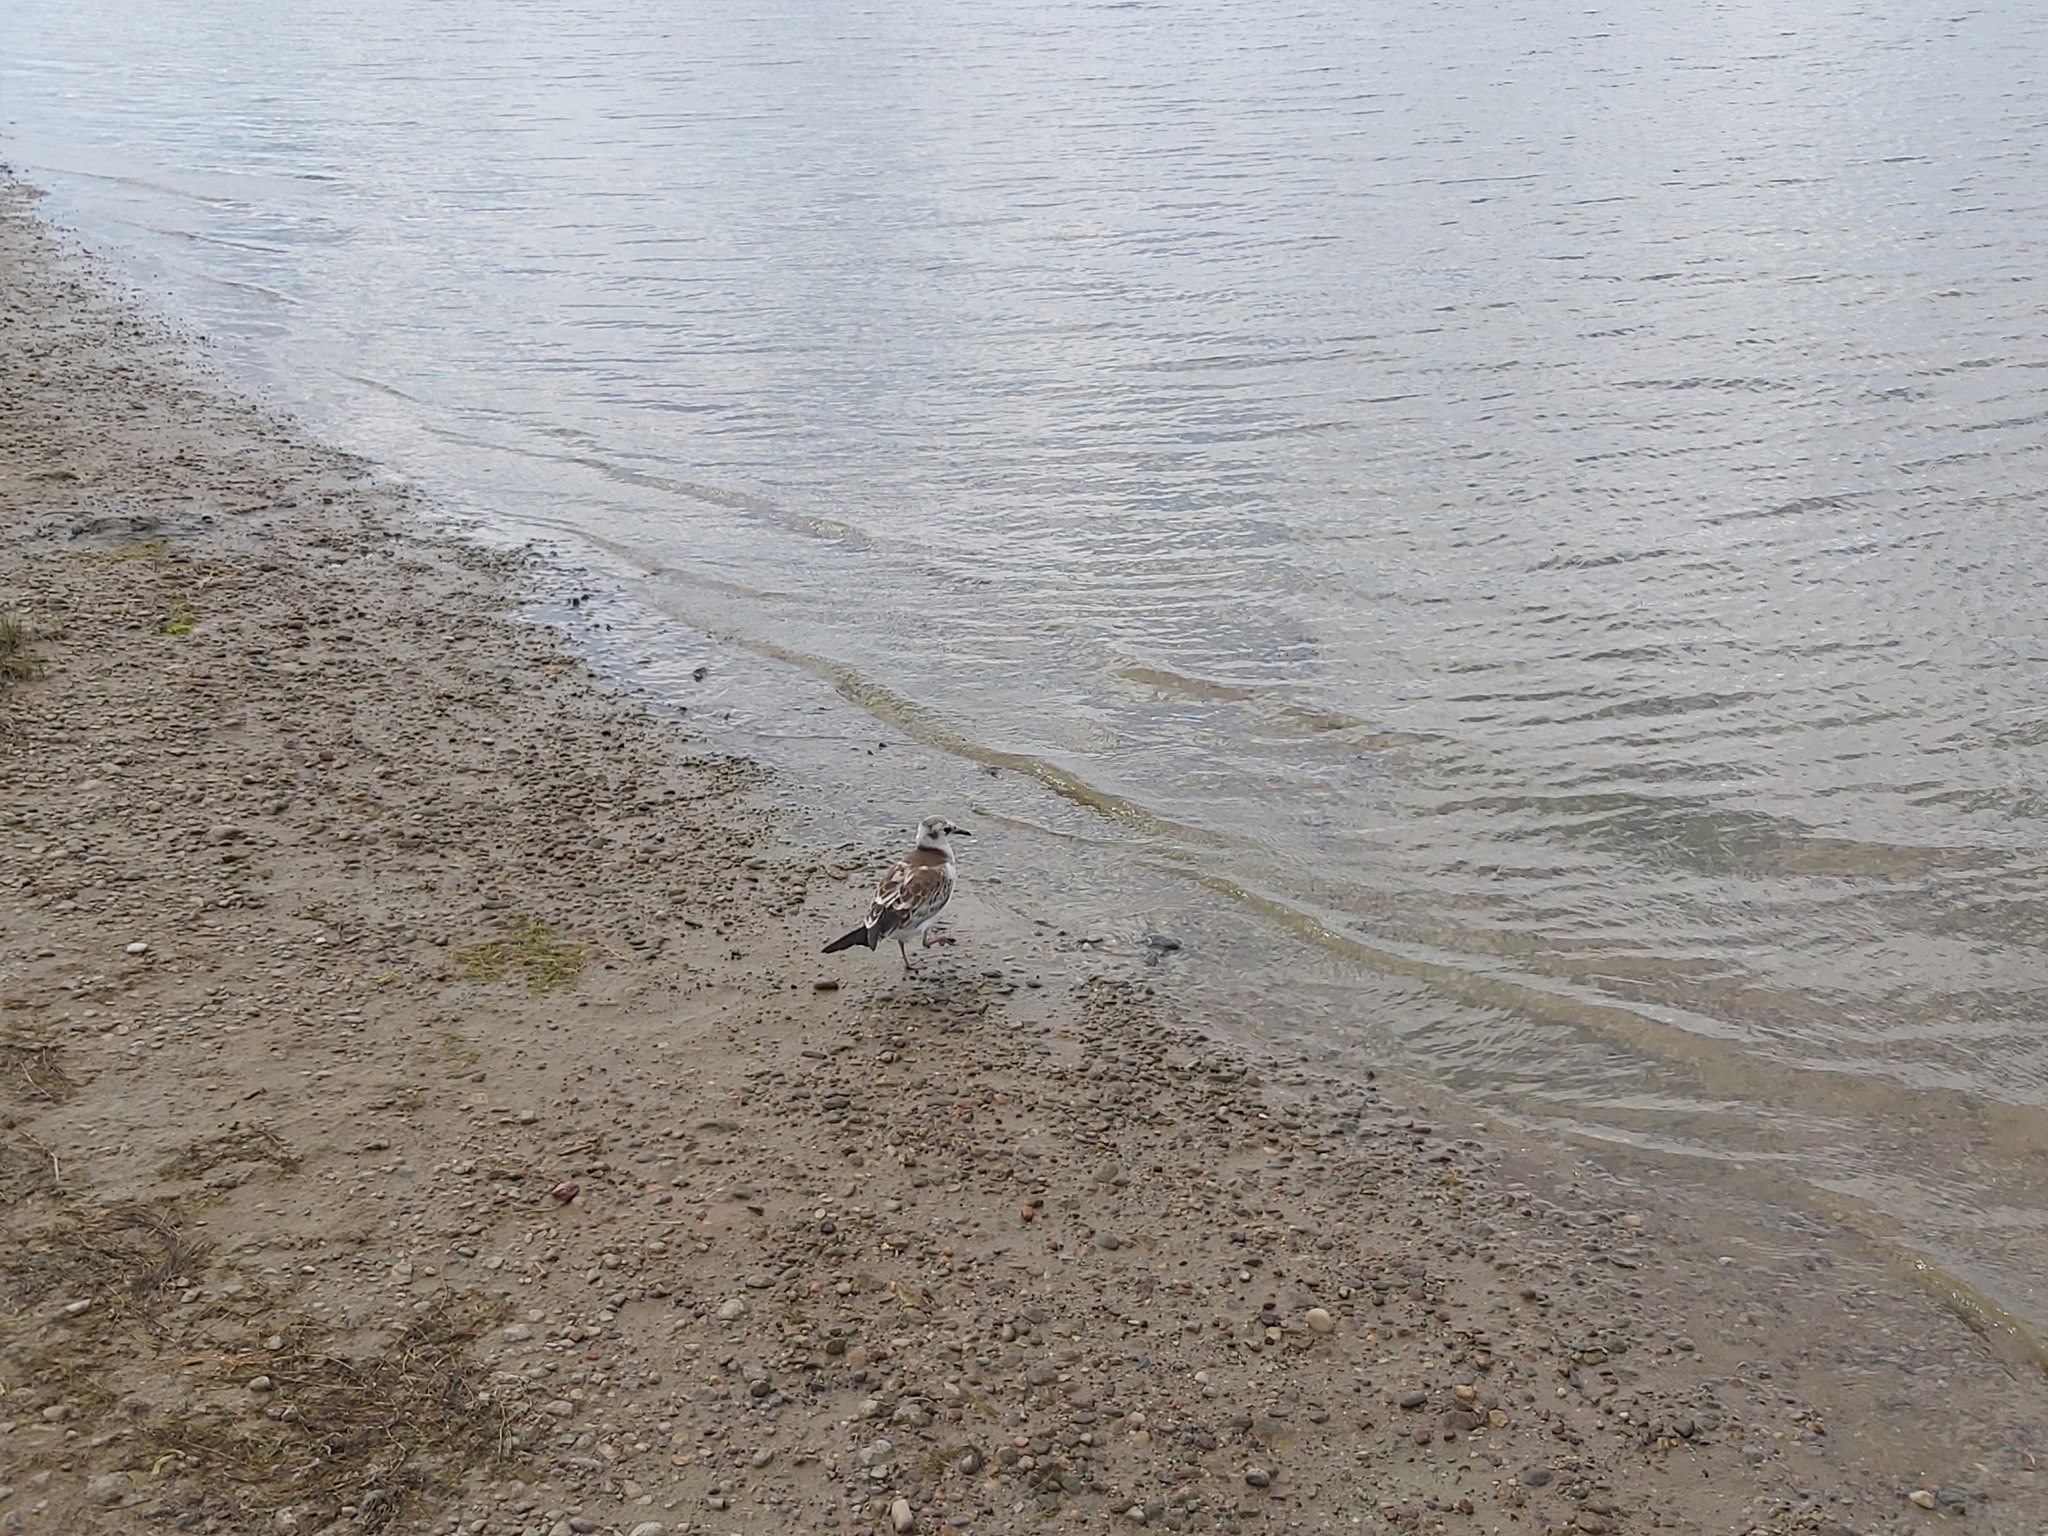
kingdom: Animalia
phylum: Chordata
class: Aves
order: Charadriiformes
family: Laridae
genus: Chroicocephalus
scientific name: Chroicocephalus ridibundus
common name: Black-headed gull
